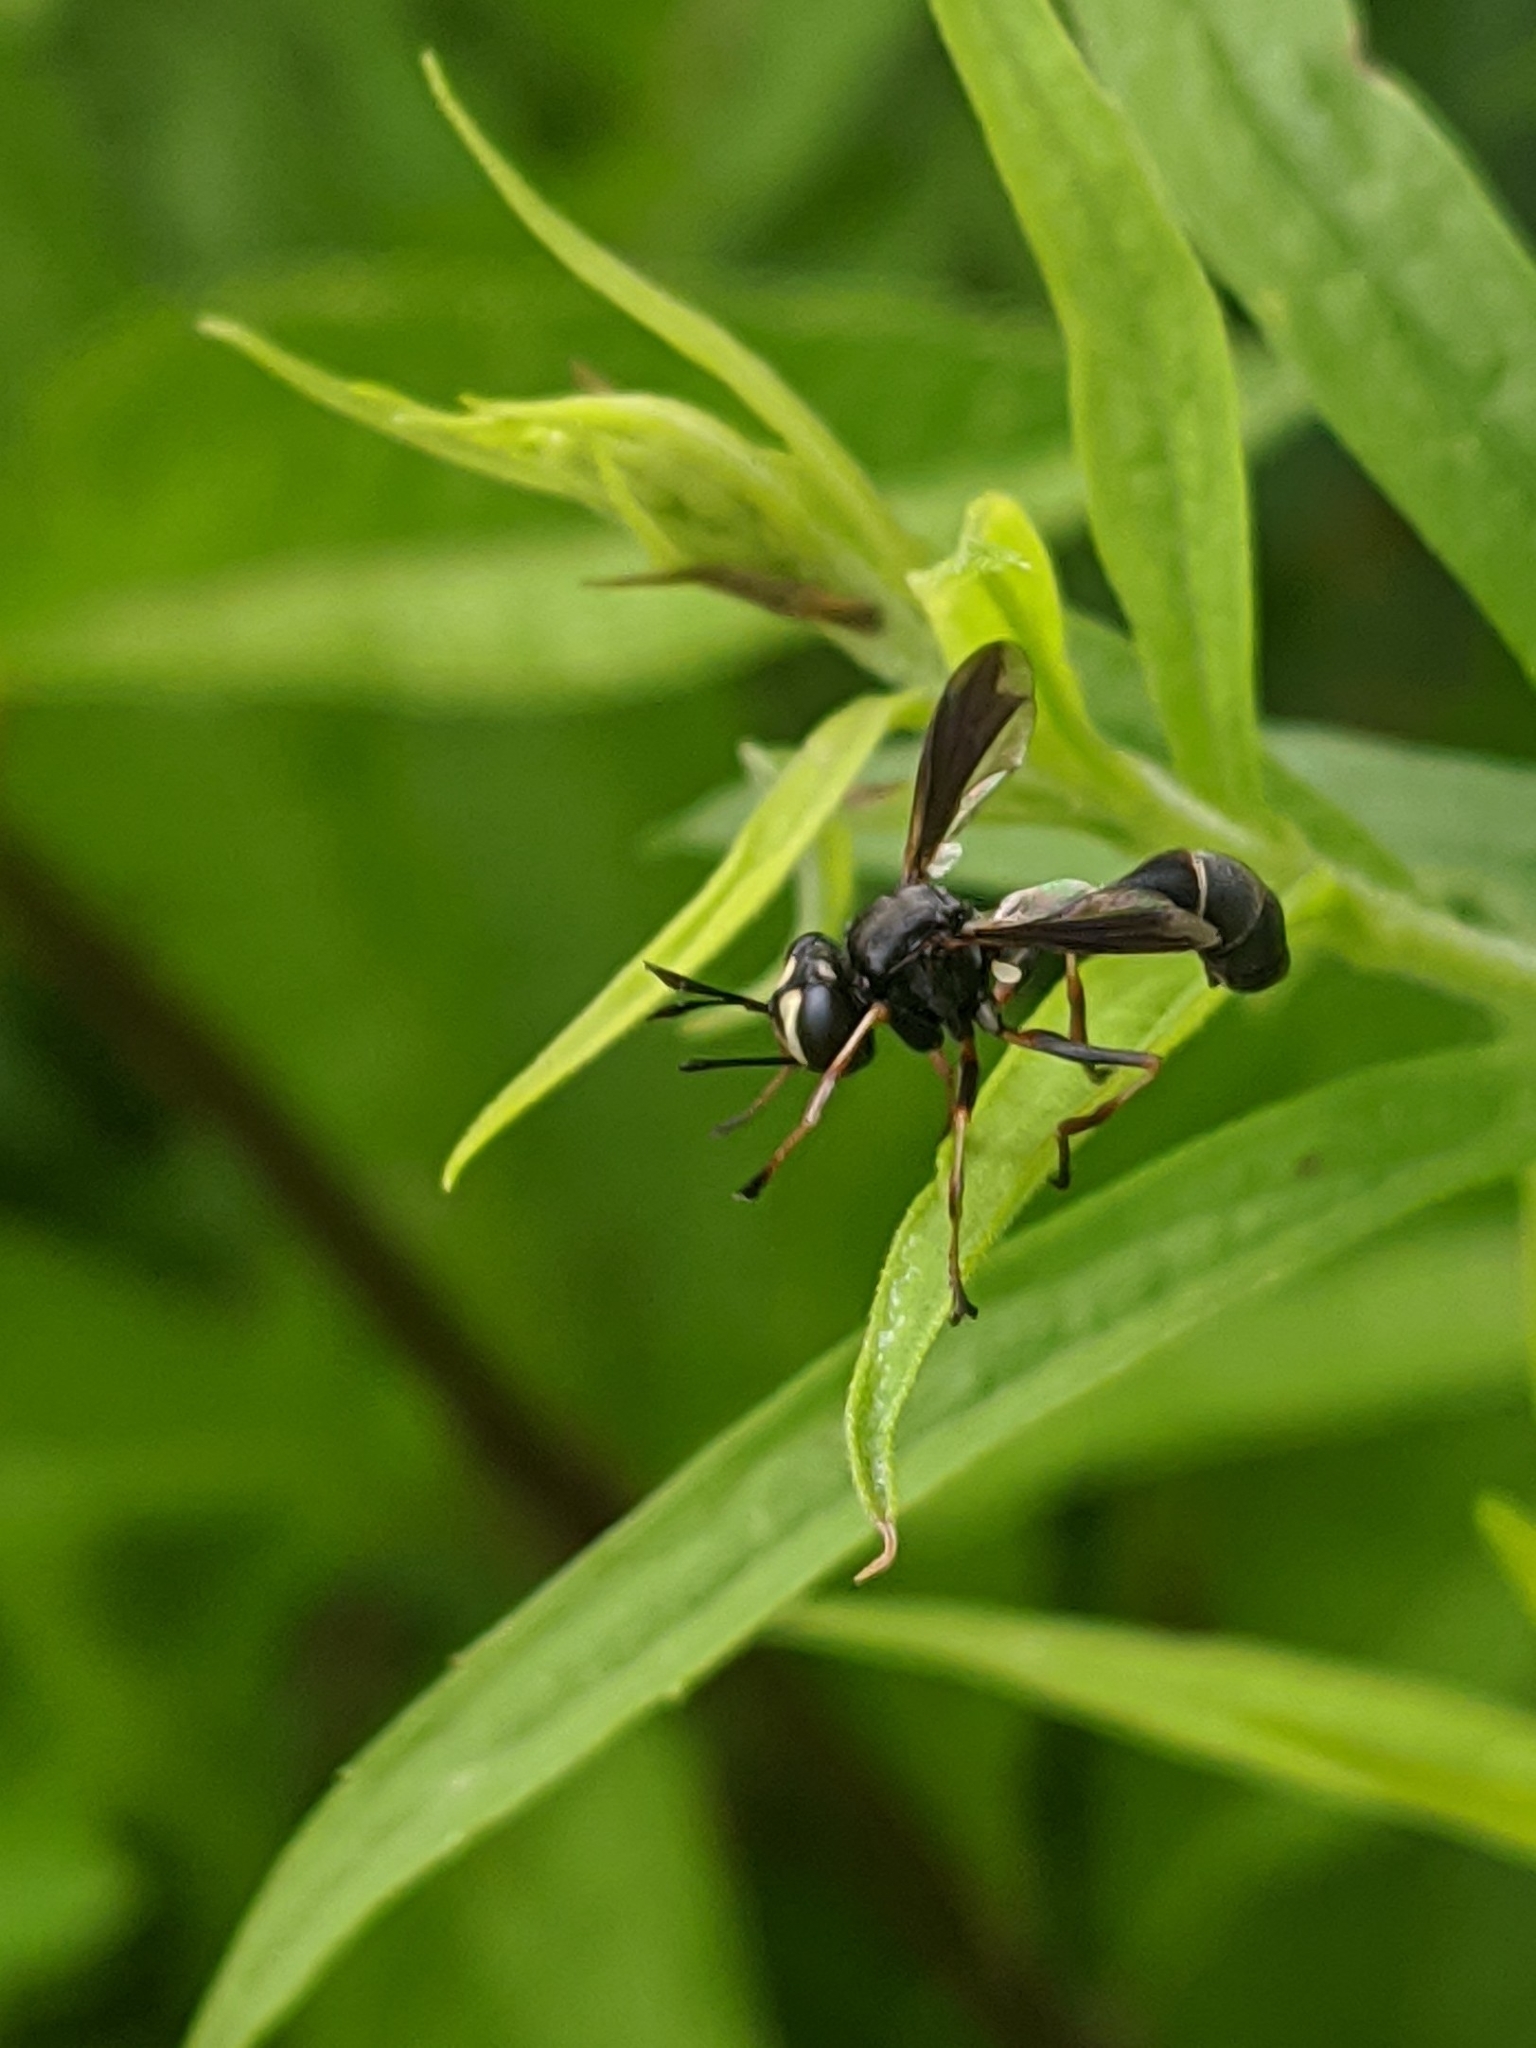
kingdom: Animalia
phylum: Arthropoda
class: Insecta
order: Diptera
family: Conopidae
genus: Physocephala
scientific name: Physocephala tibialis
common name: Common eastern physocephala
